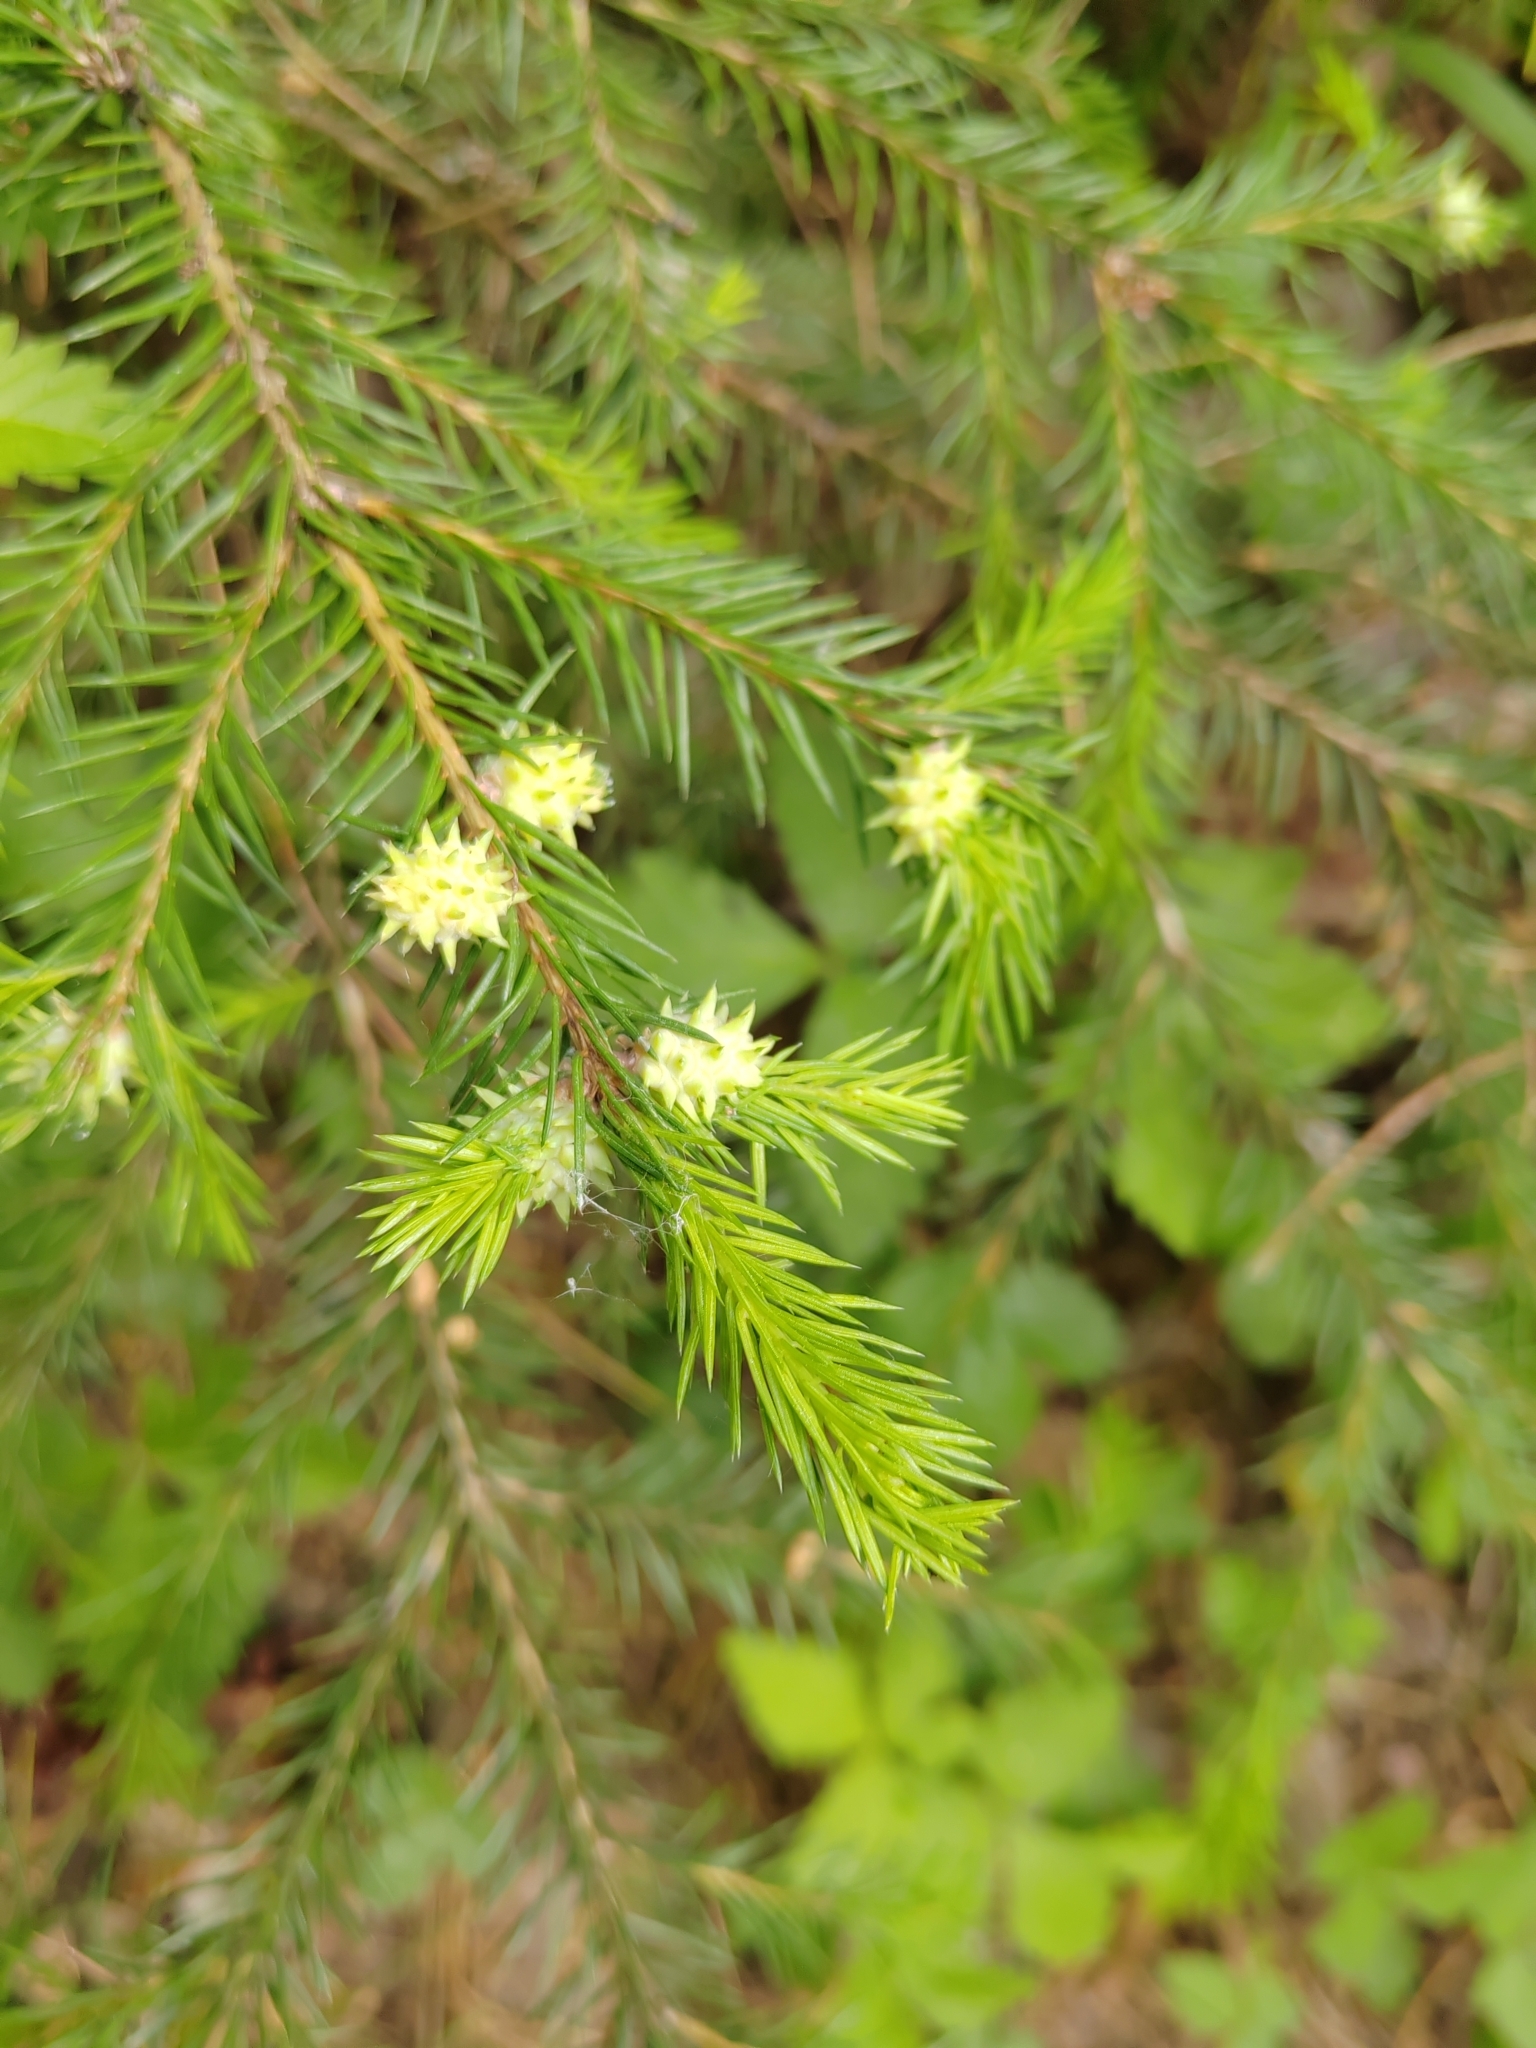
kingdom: Plantae
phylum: Tracheophyta
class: Pinopsida
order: Pinales
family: Pinaceae
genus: Picea
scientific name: Picea obovata
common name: Siberian spruce
